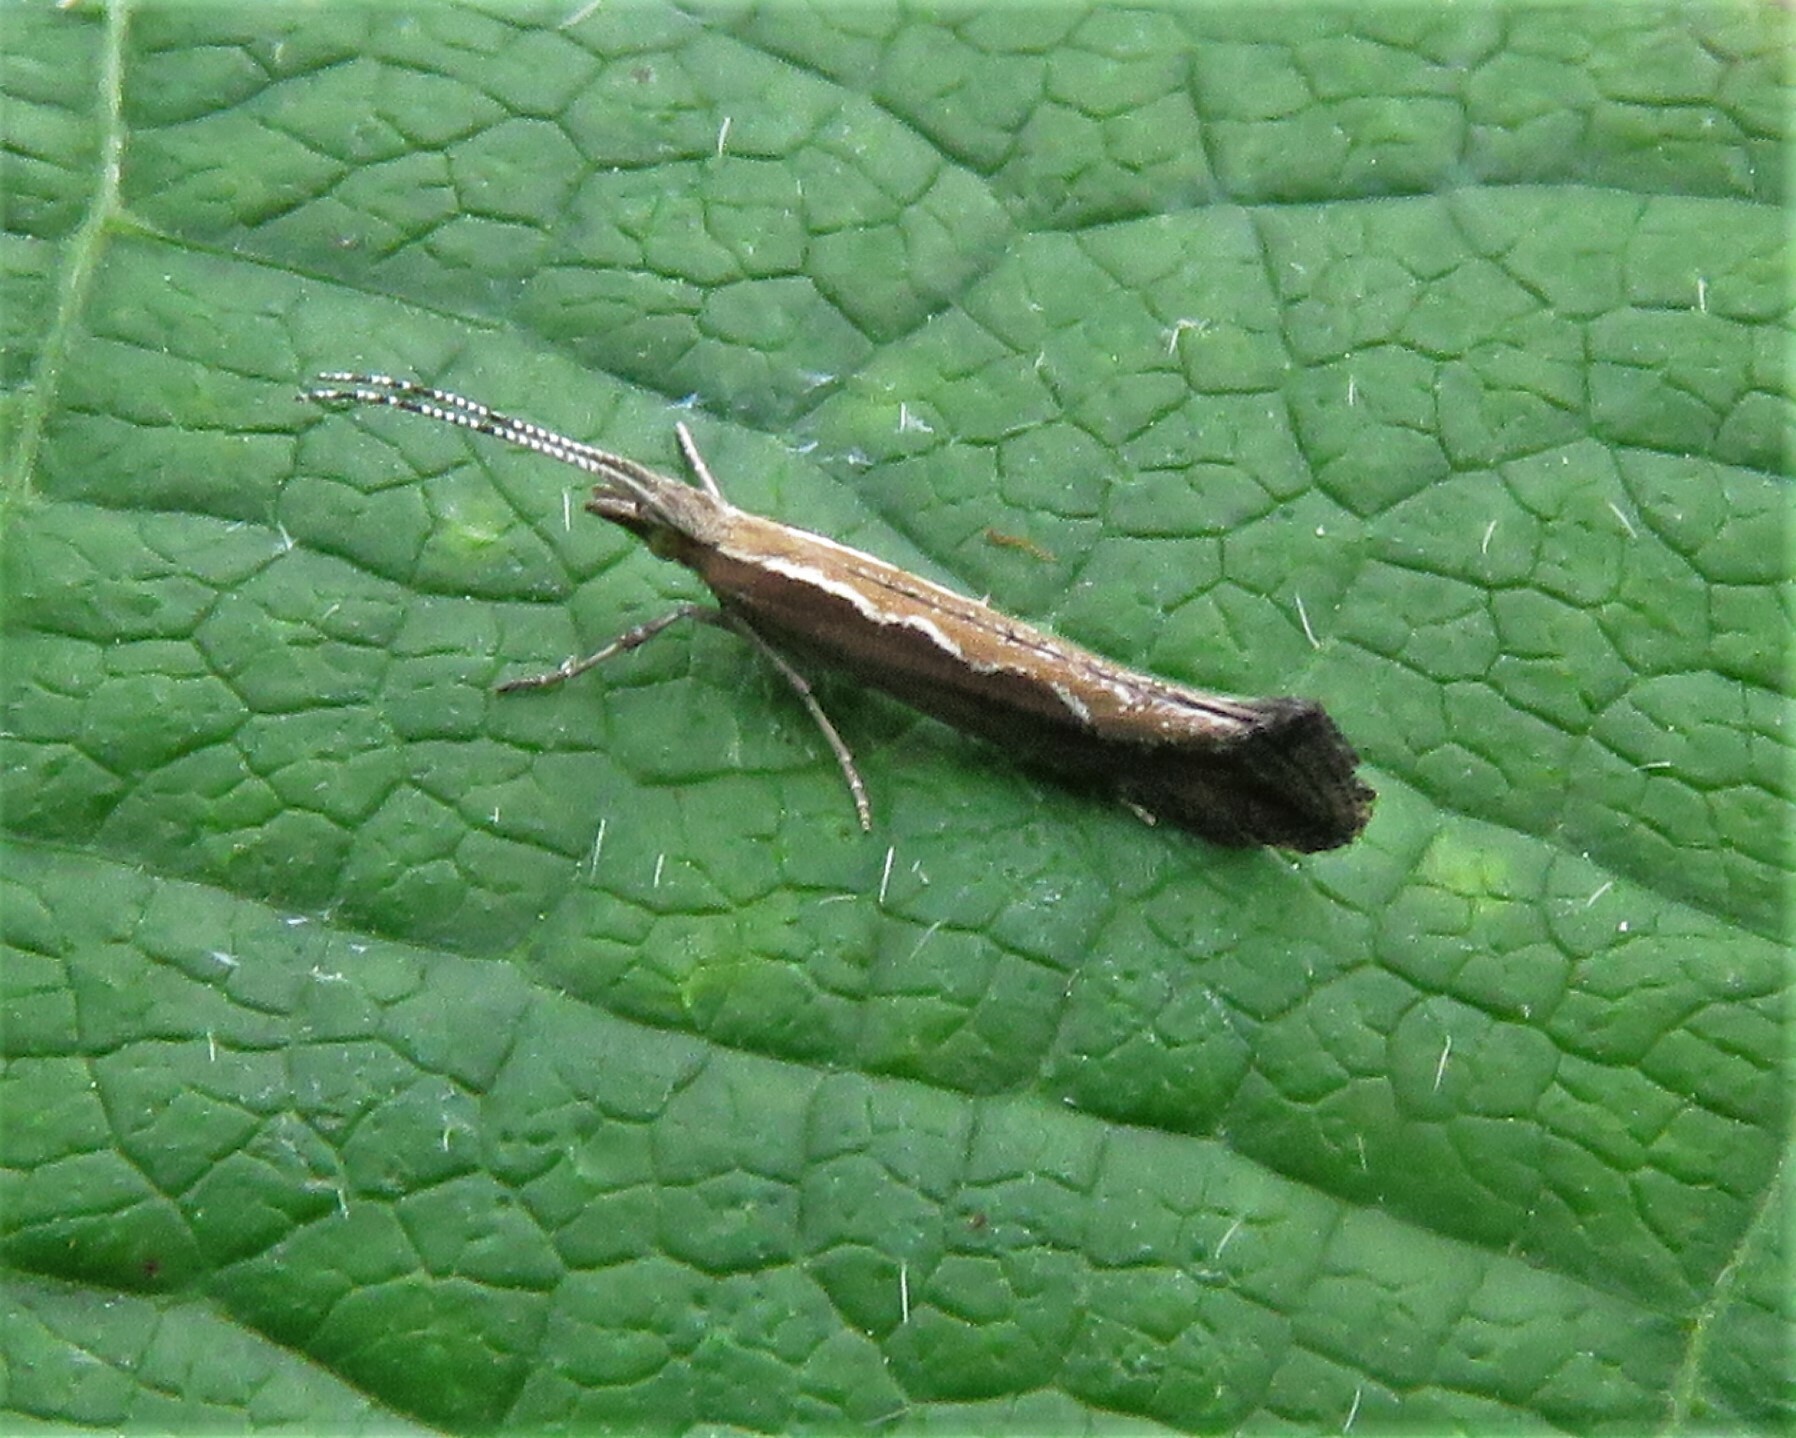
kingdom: Animalia
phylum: Arthropoda
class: Insecta
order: Lepidoptera
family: Plutellidae
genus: Plutella
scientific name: Plutella xylostella
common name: Diamond-back moth
